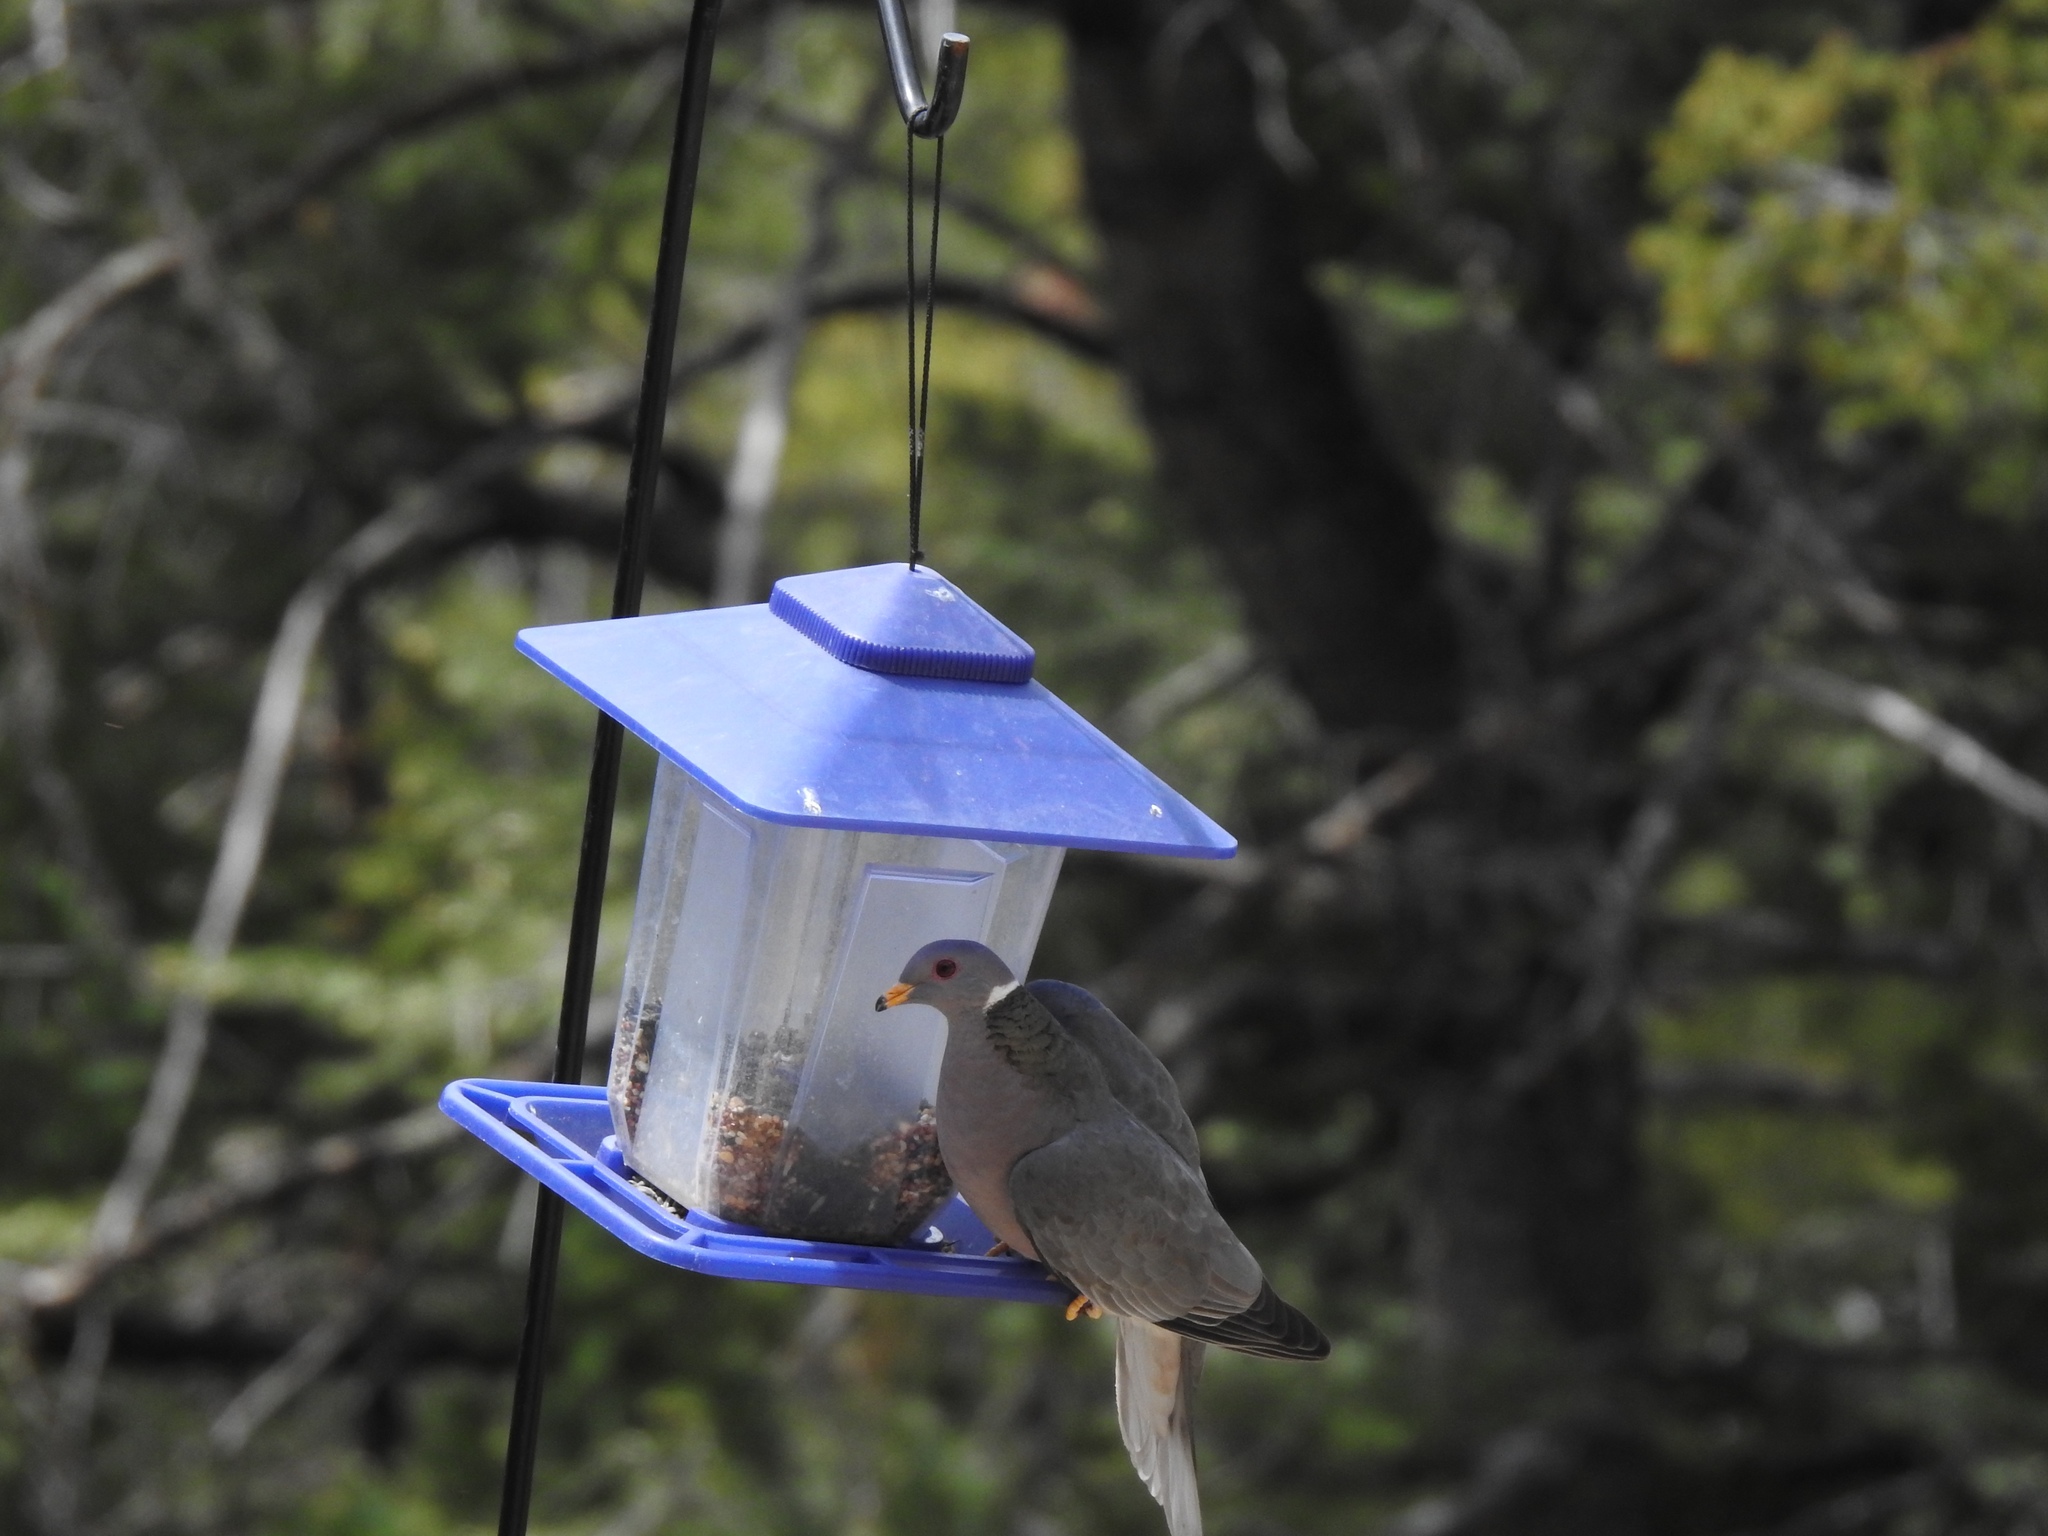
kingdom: Animalia
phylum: Chordata
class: Aves
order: Columbiformes
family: Columbidae
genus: Patagioenas
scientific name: Patagioenas fasciata
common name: Band-tailed pigeon
